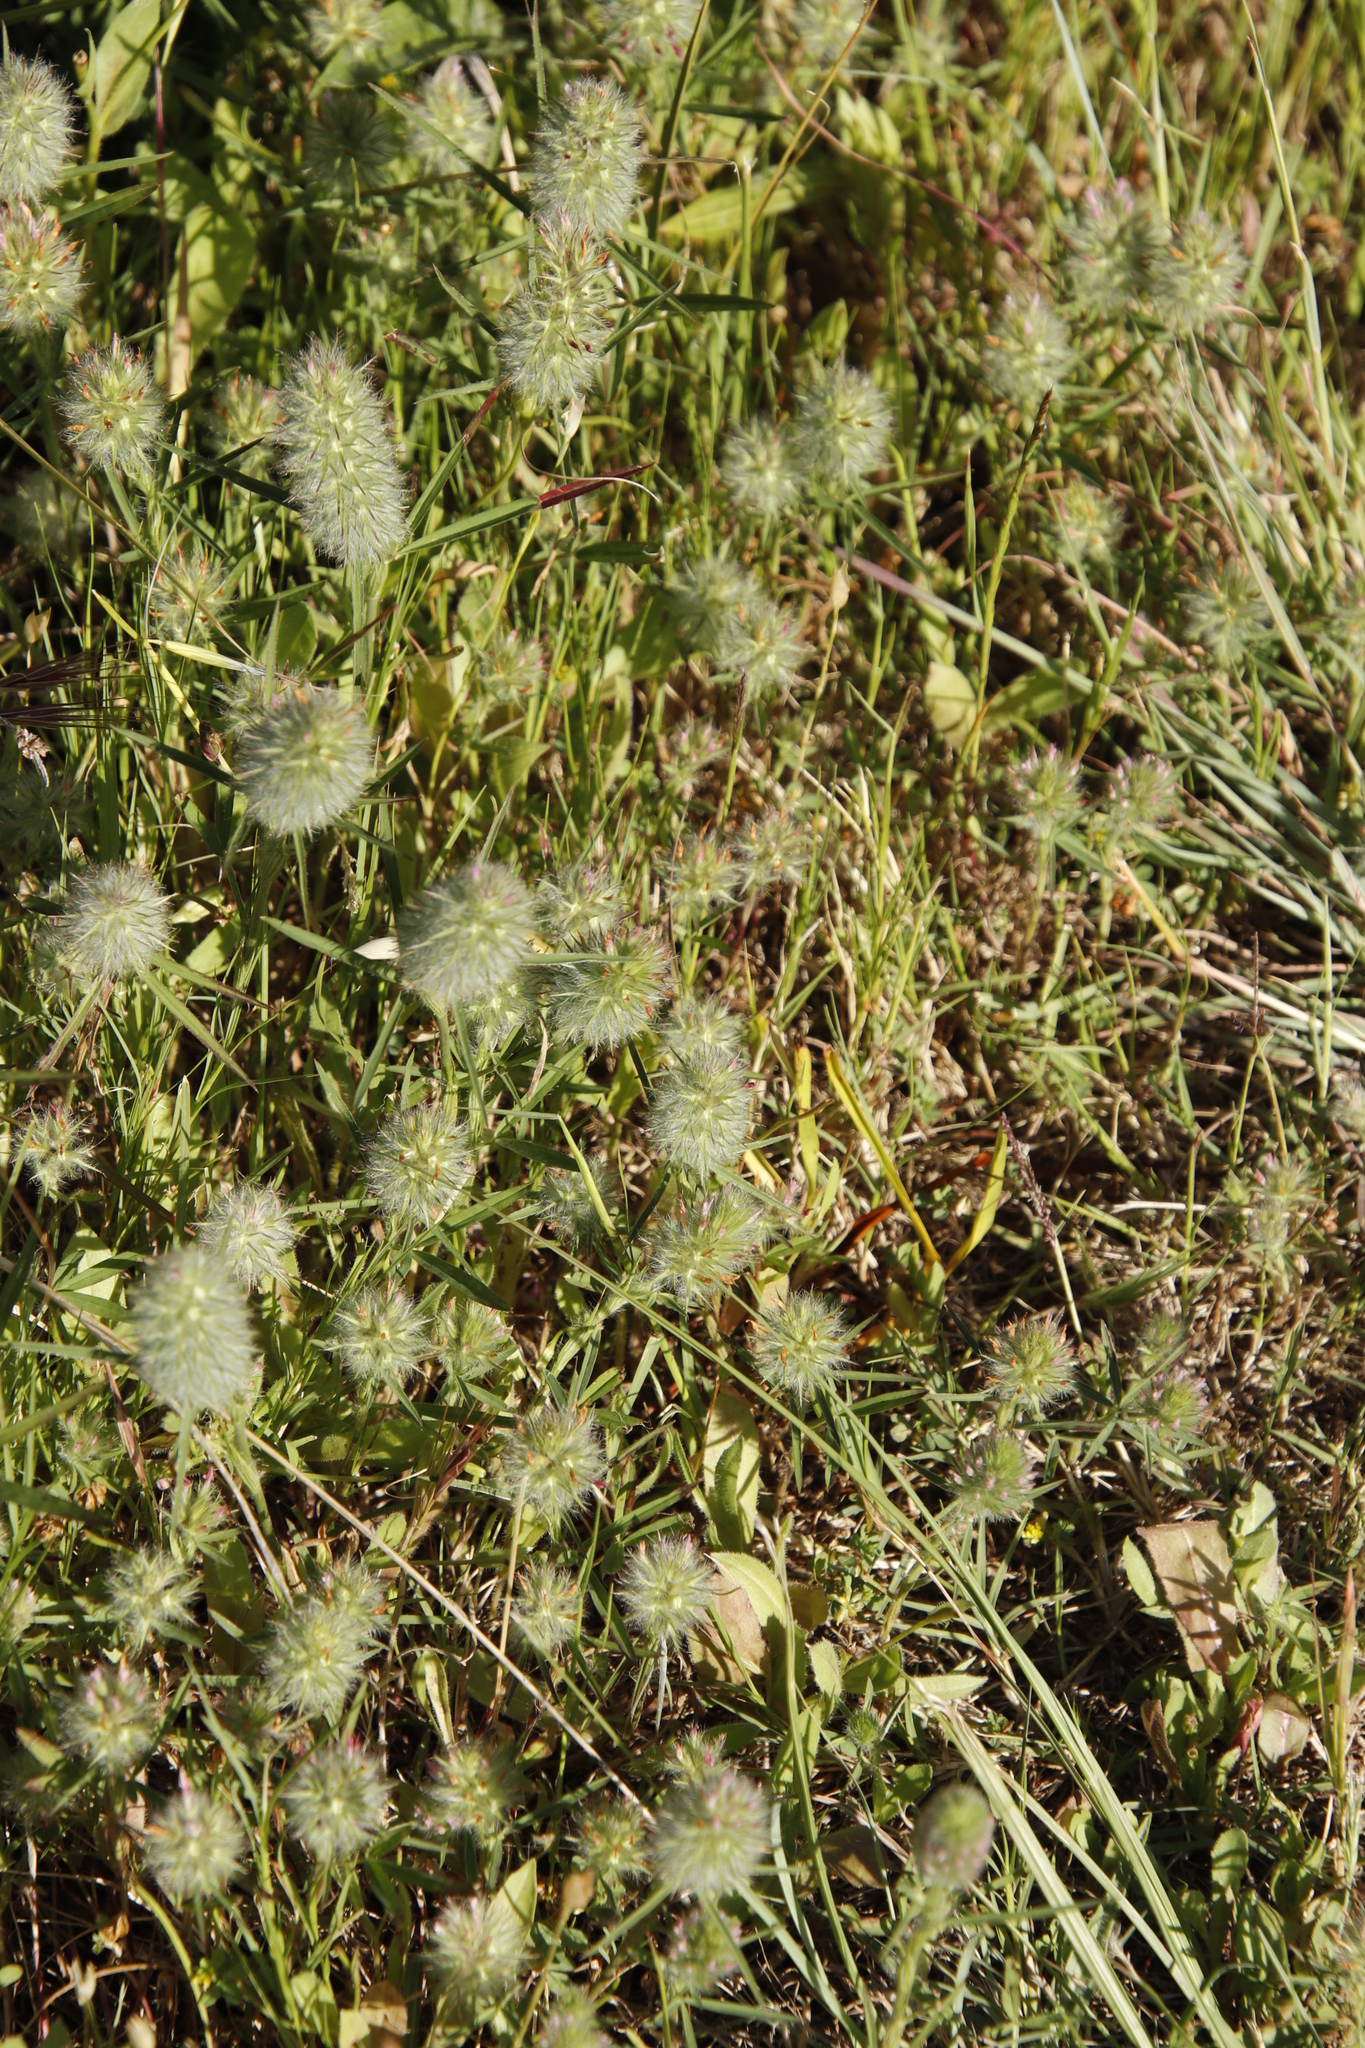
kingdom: Plantae
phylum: Tracheophyta
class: Magnoliopsida
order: Fabales
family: Fabaceae
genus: Trifolium
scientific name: Trifolium angustifolium
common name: Narrow clover
